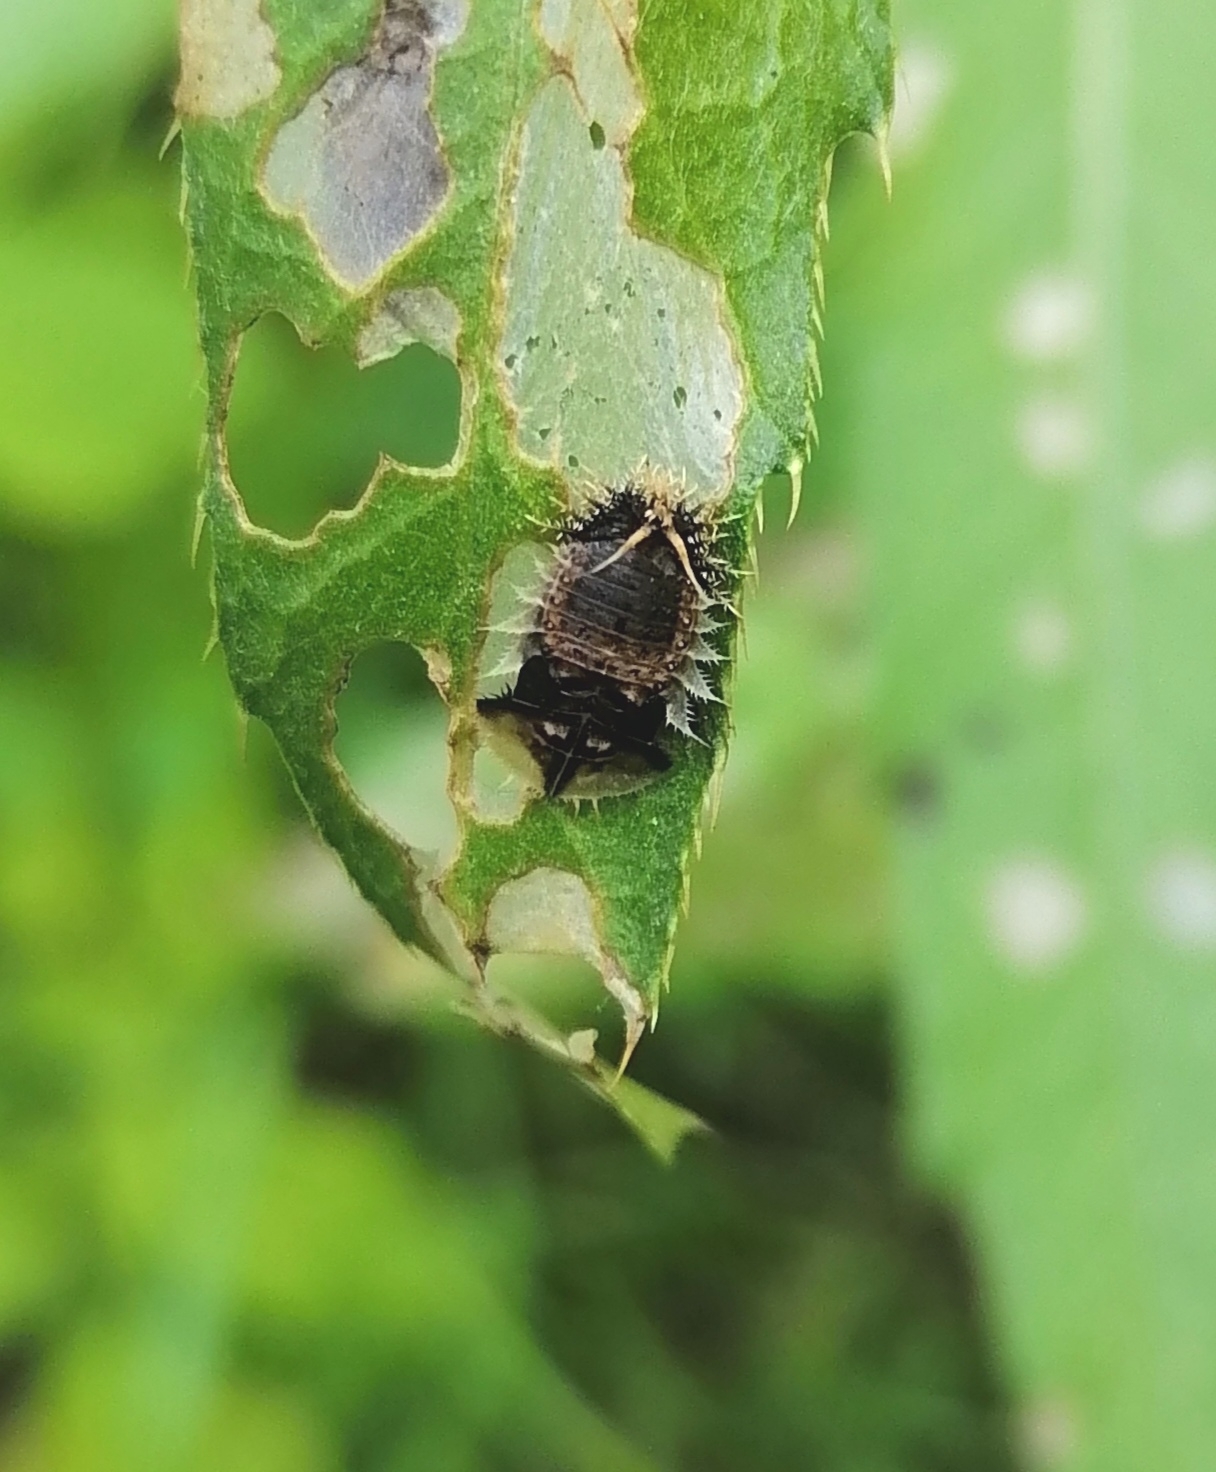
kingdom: Animalia
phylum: Arthropoda
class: Insecta
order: Coleoptera
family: Chrysomelidae
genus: Cassida
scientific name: Cassida rubiginosa
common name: Thistle tortoise beetle
